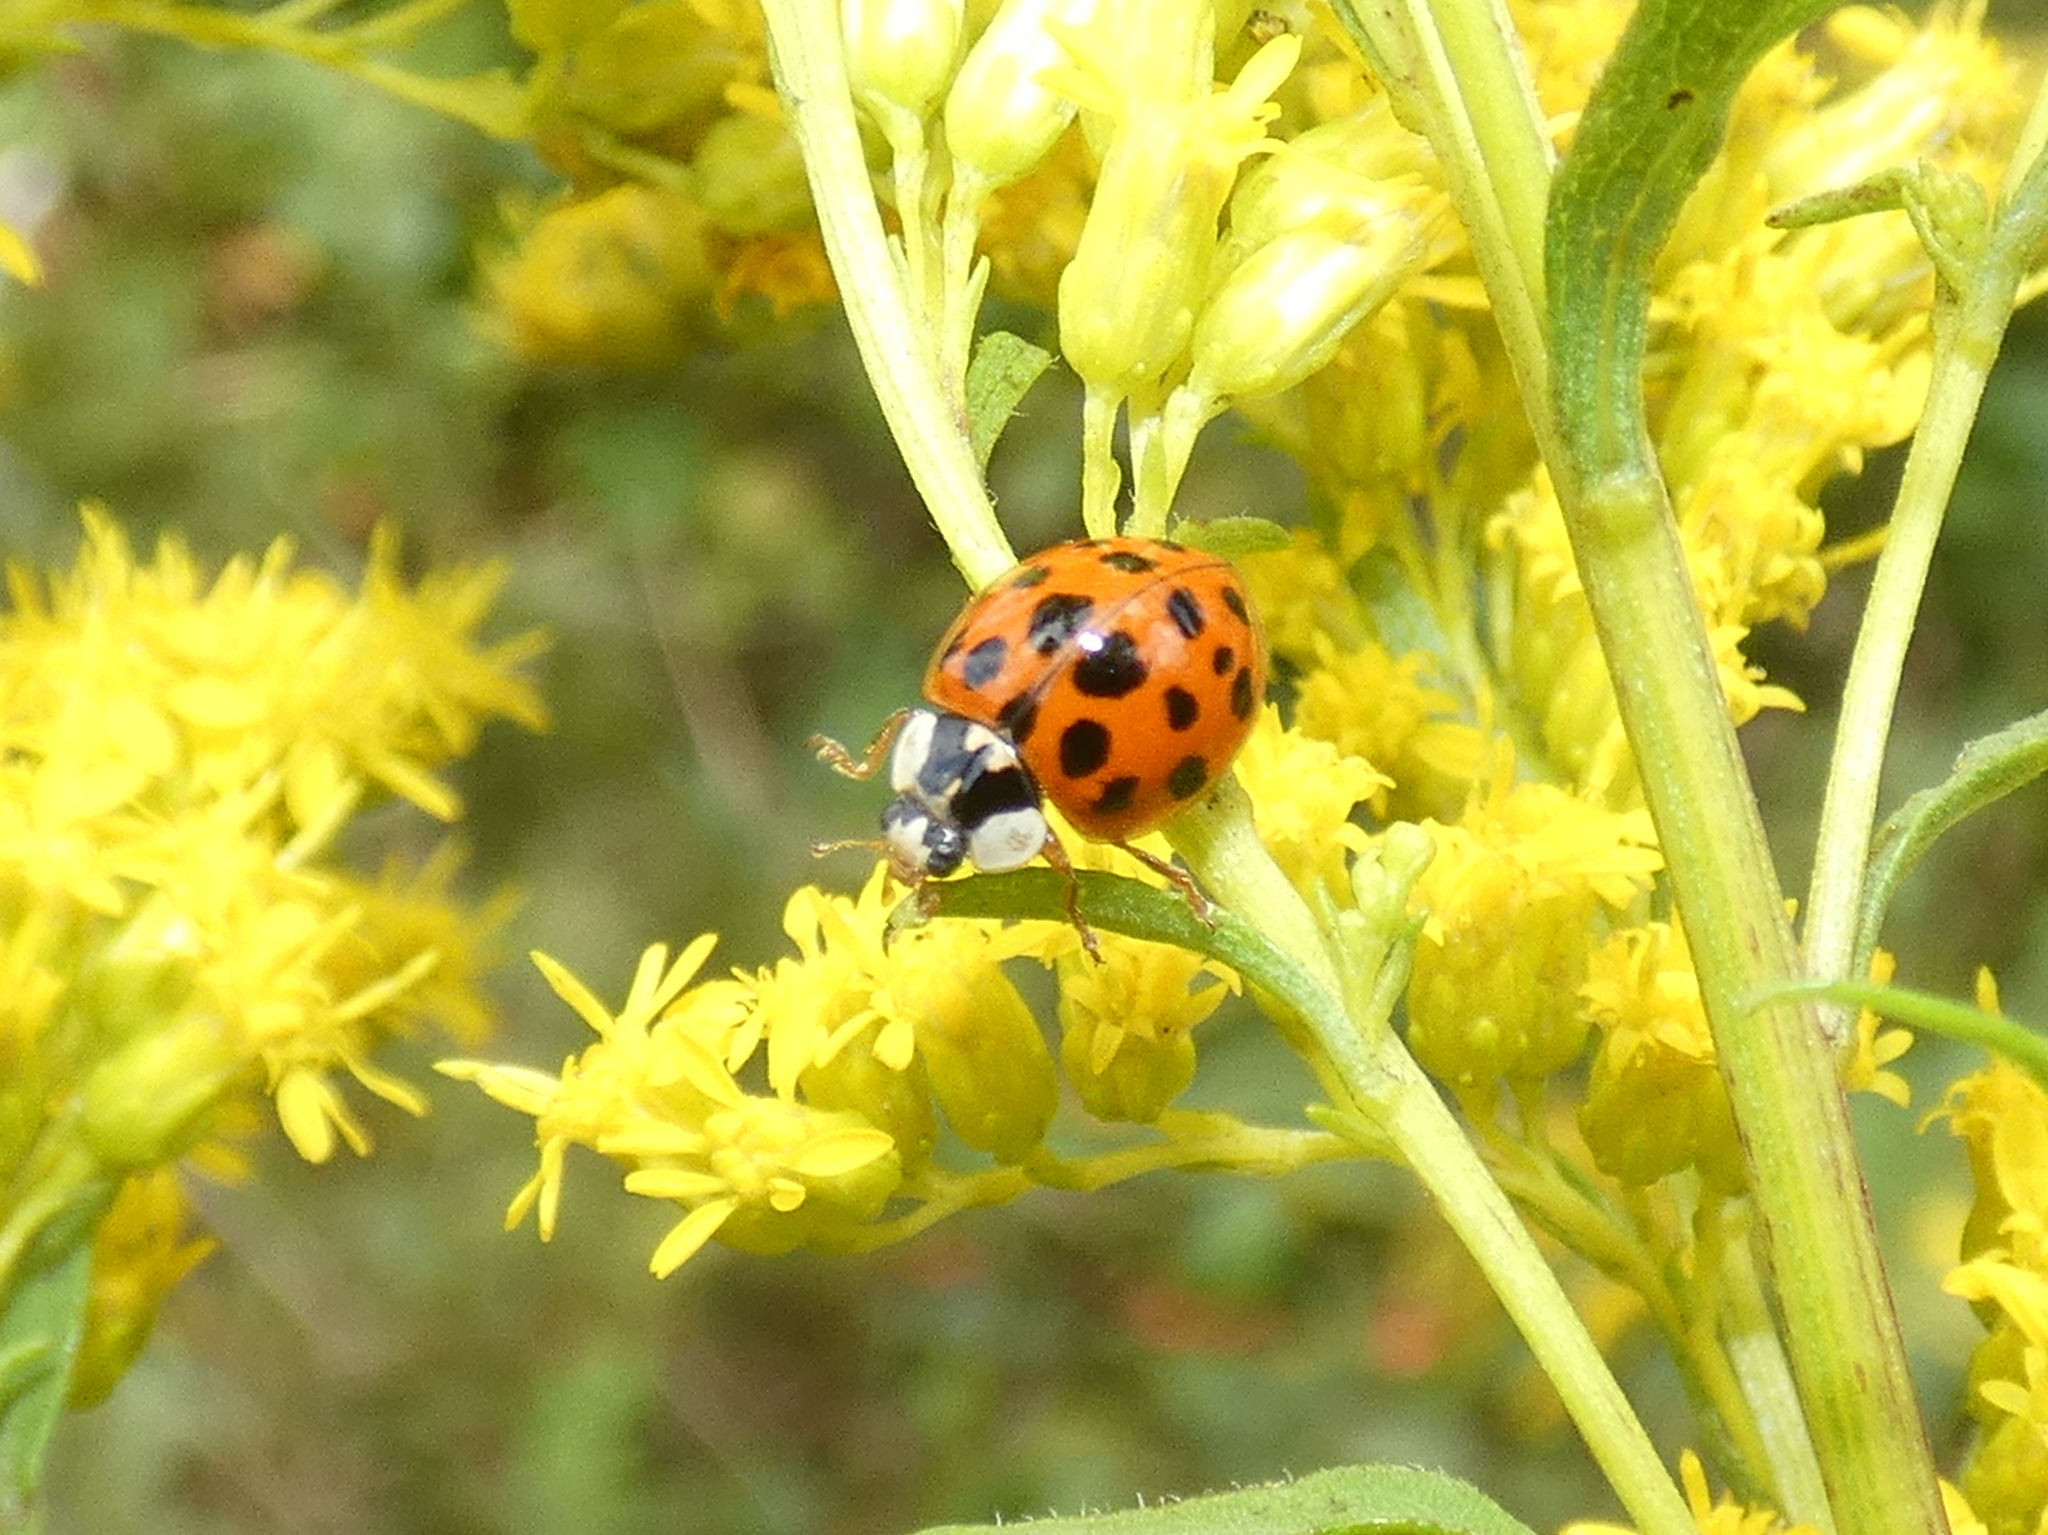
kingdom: Animalia
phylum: Arthropoda
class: Insecta
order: Coleoptera
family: Coccinellidae
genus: Harmonia
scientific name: Harmonia axyridis
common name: Harlequin ladybird
